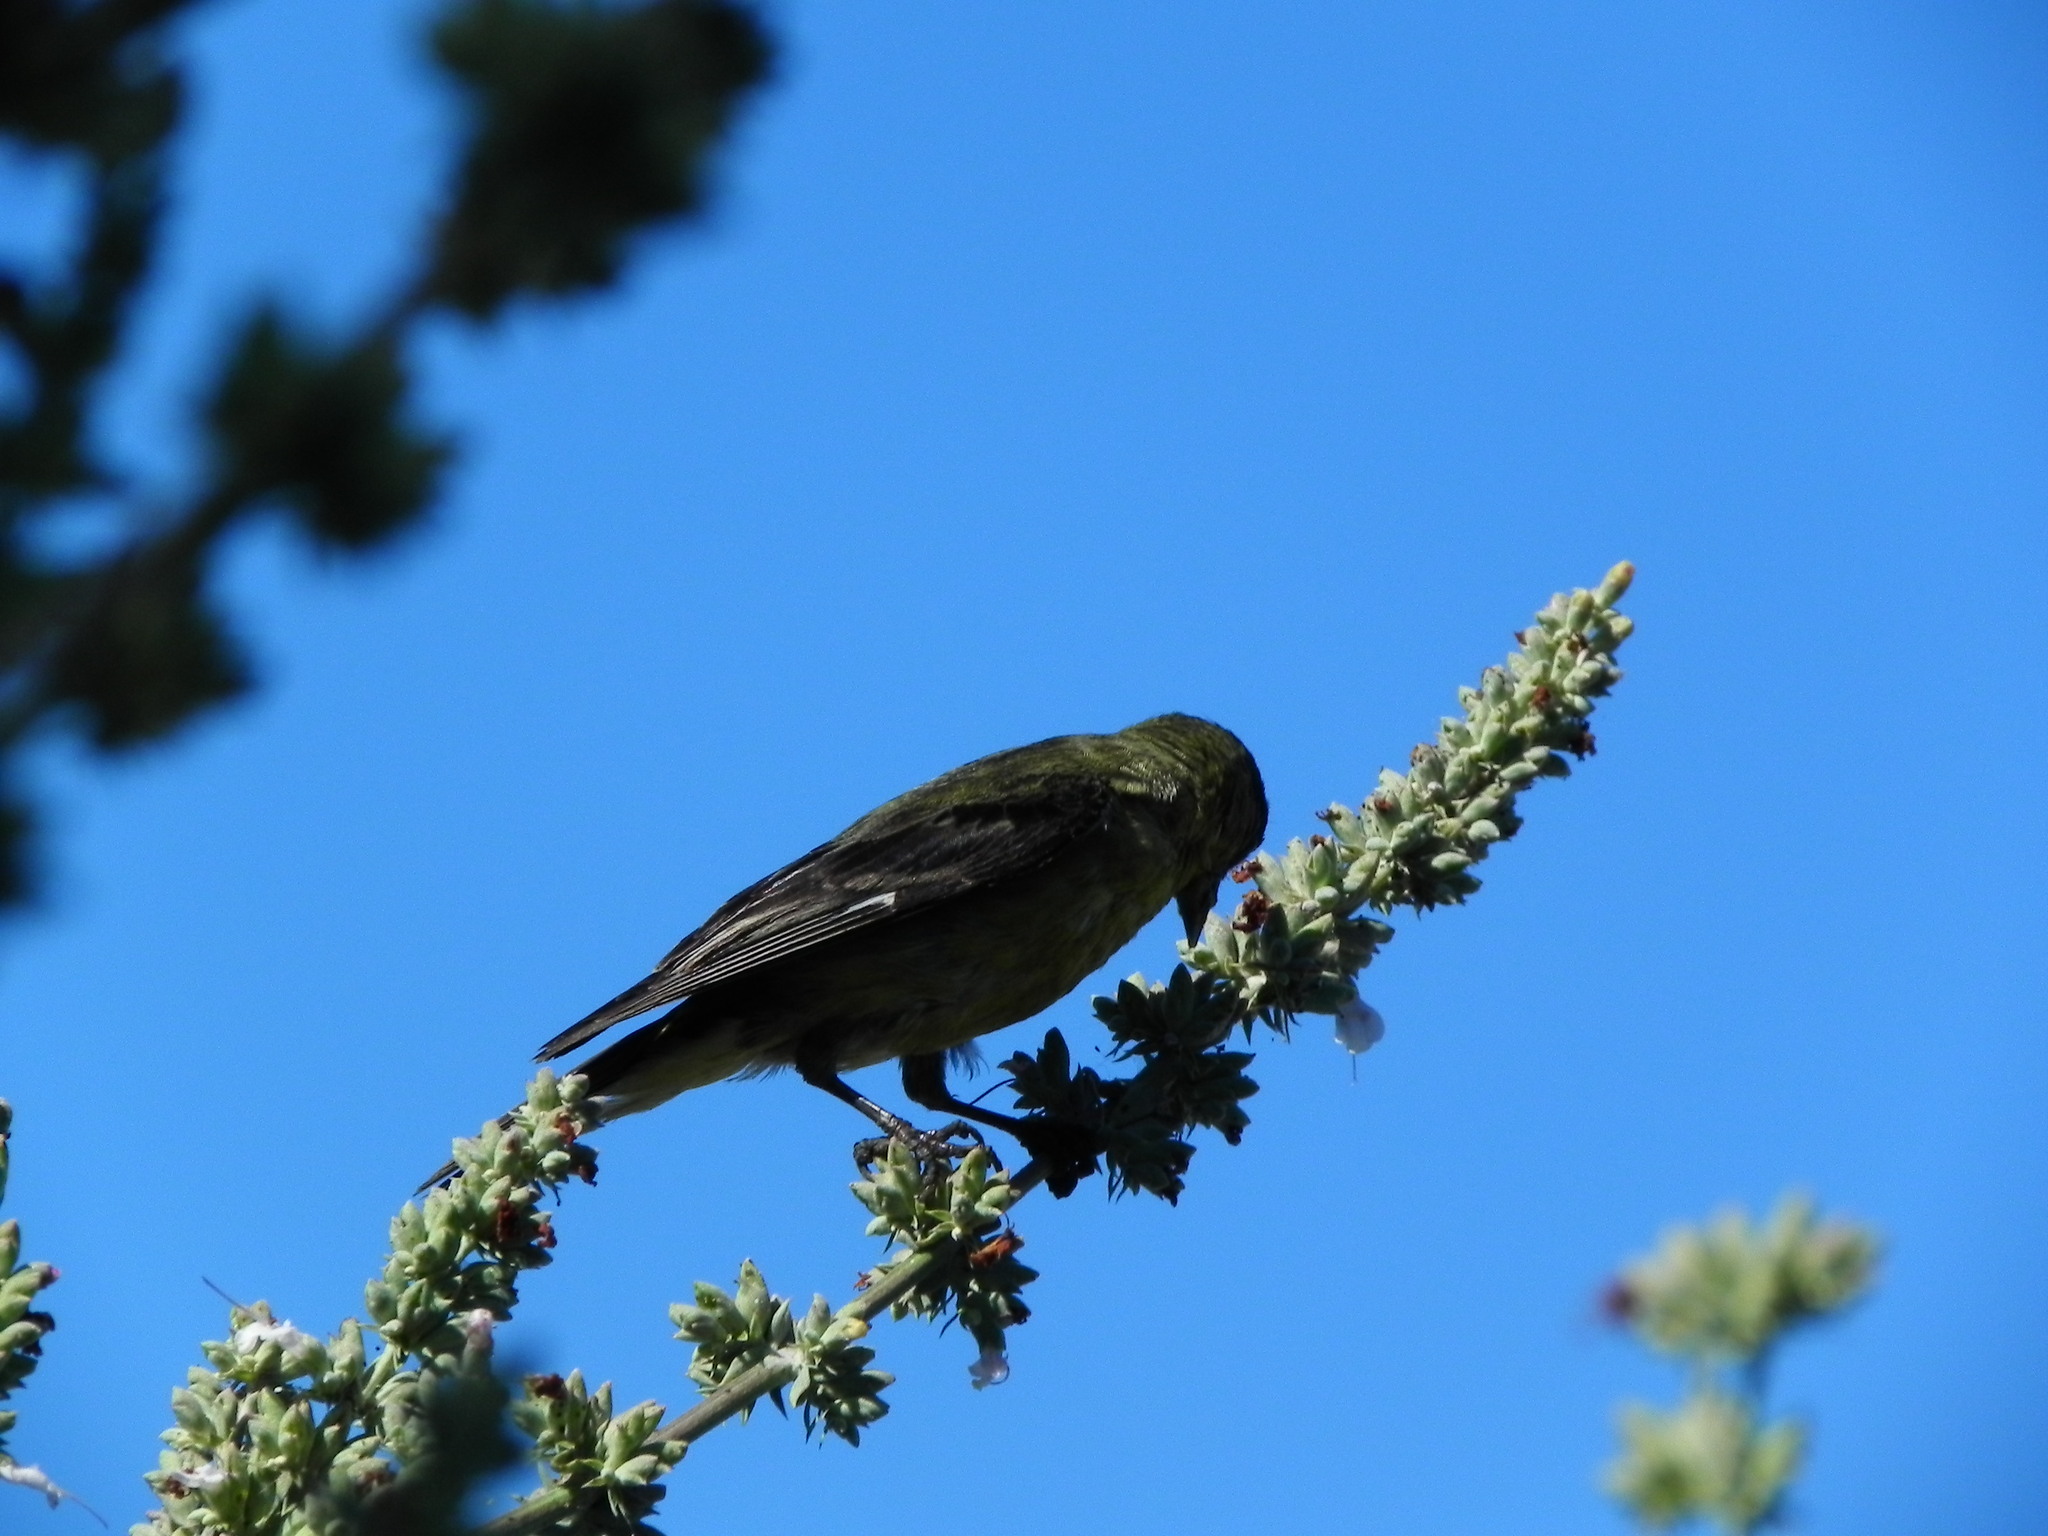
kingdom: Animalia
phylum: Chordata
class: Aves
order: Passeriformes
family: Fringillidae
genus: Spinus
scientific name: Spinus psaltria
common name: Lesser goldfinch
